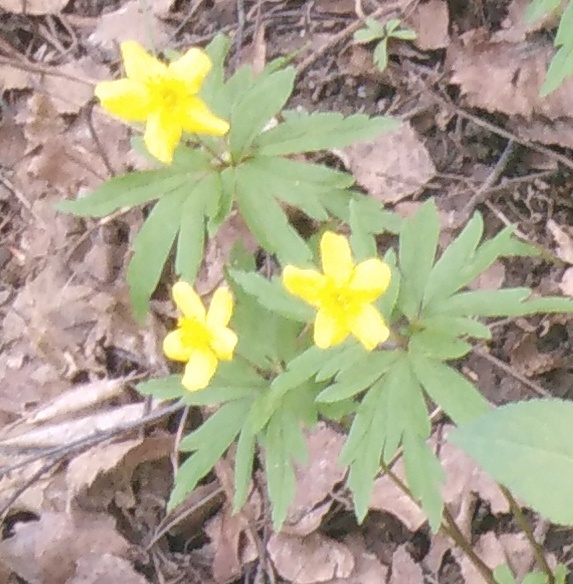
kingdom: Plantae
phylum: Tracheophyta
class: Magnoliopsida
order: Ranunculales
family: Ranunculaceae
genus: Anemone
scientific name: Anemone ranunculoides
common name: Yellow anemone
